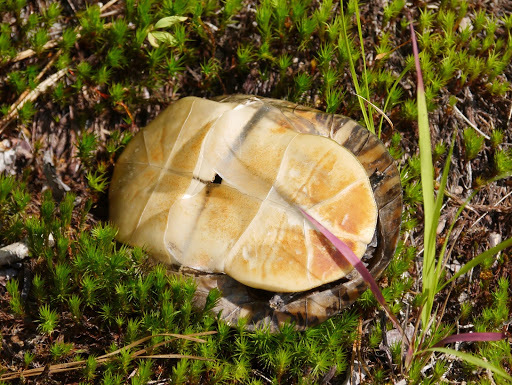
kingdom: Animalia
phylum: Chordata
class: Testudines
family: Emydidae
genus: Chrysemys
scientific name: Chrysemys picta
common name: Painted turtle
